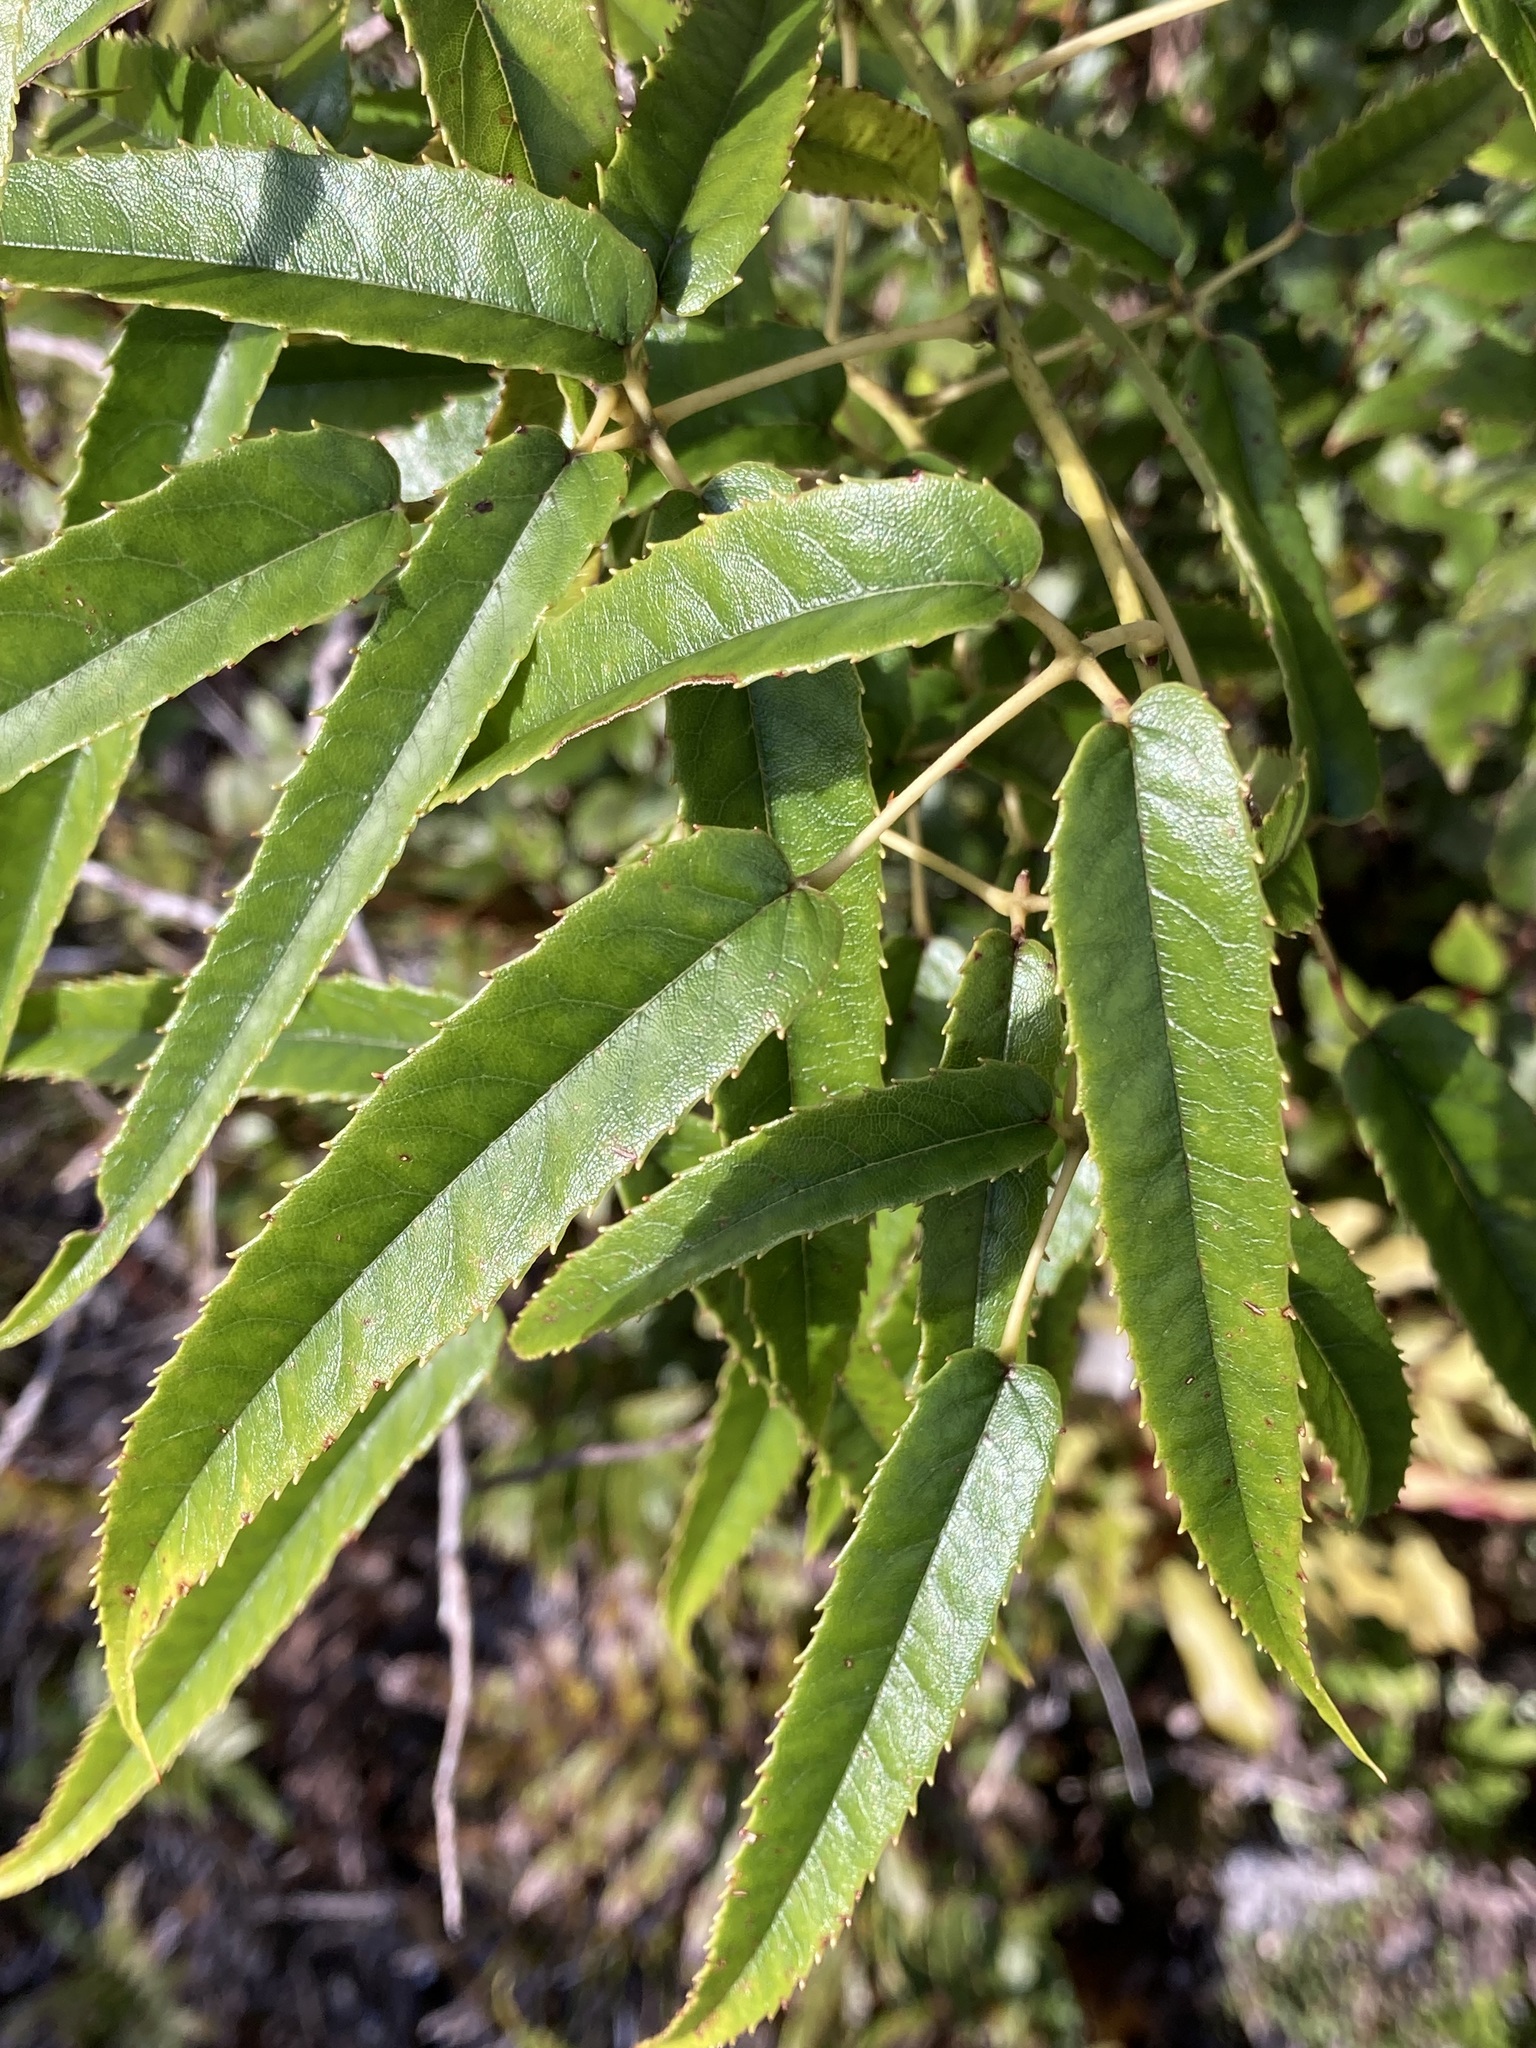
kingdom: Plantae
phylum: Tracheophyta
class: Magnoliopsida
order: Rosales
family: Rosaceae
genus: Rubus
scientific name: Rubus cissoides
